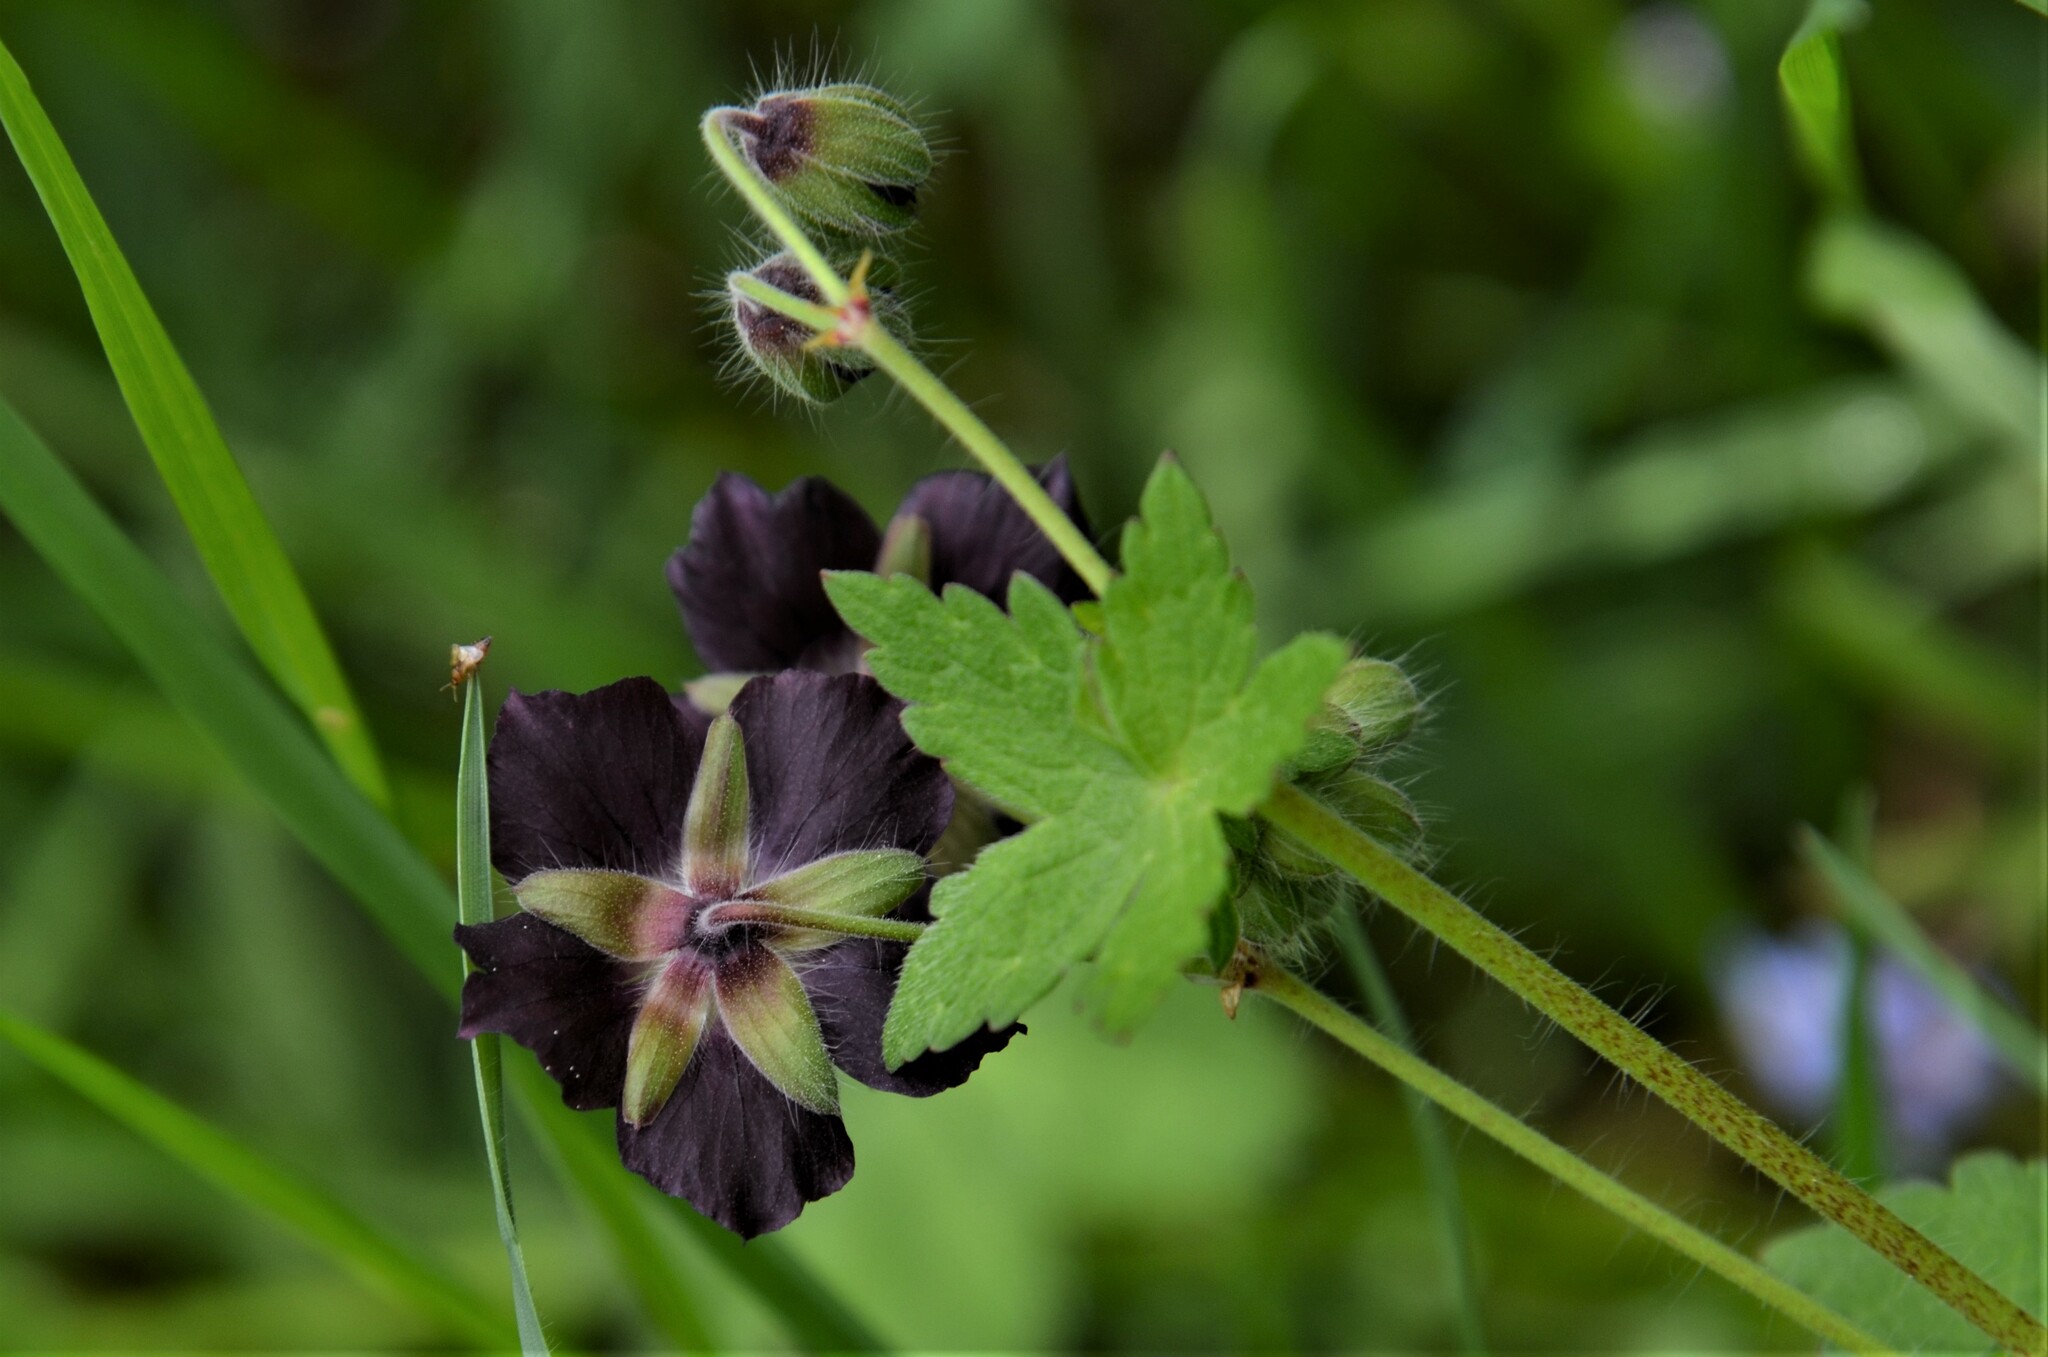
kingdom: Plantae
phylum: Tracheophyta
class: Magnoliopsida
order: Geraniales
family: Geraniaceae
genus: Geranium
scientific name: Geranium phaeum
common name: Dusky crane's-bill
